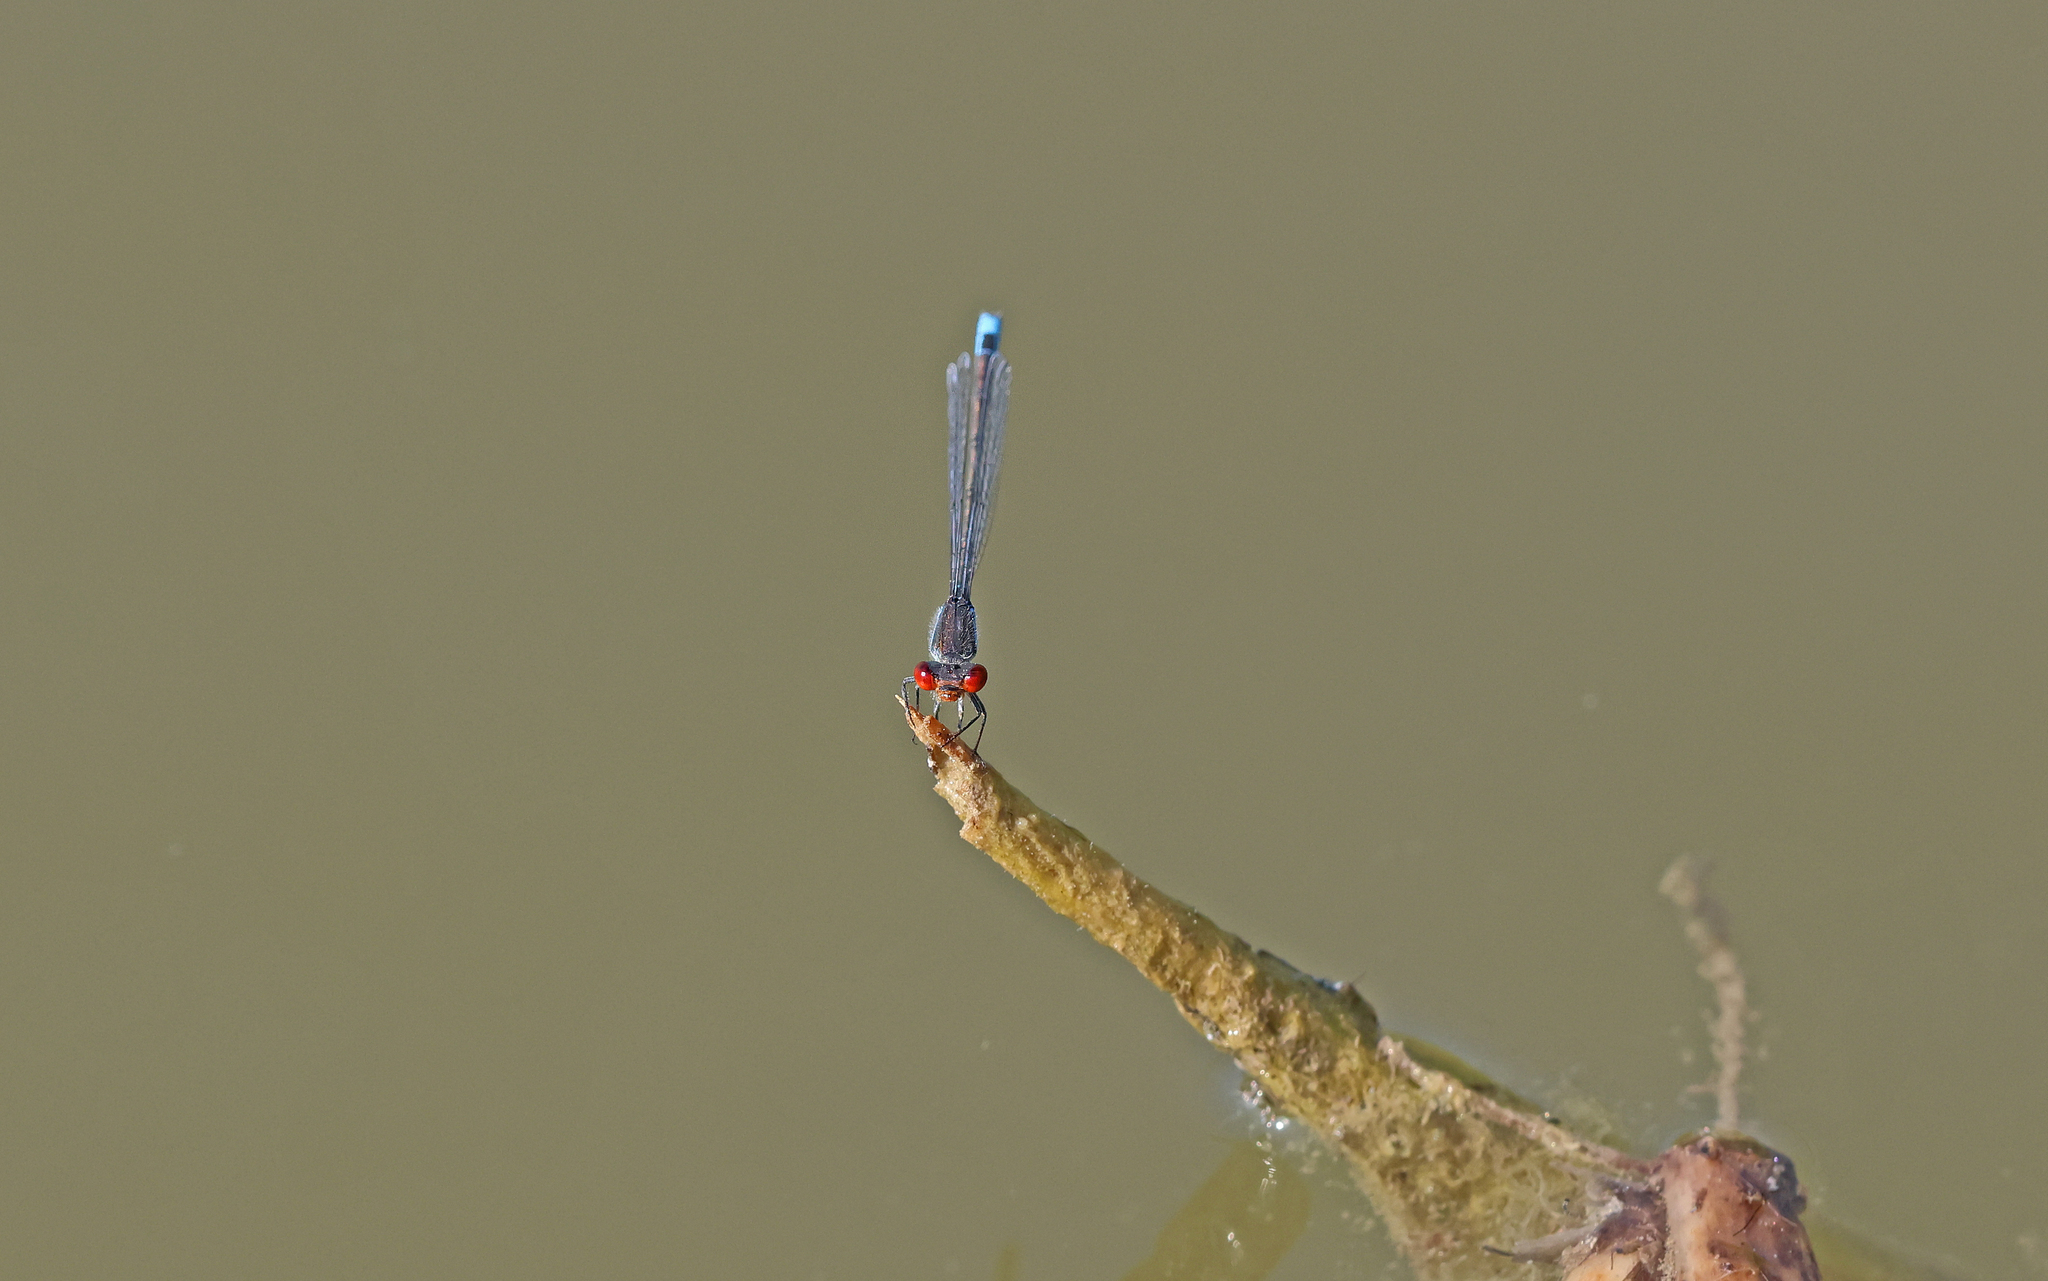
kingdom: Animalia
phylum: Arthropoda
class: Insecta
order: Odonata
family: Coenagrionidae
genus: Erythromma
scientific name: Erythromma viridulum
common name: Small red-eyed damselfly
